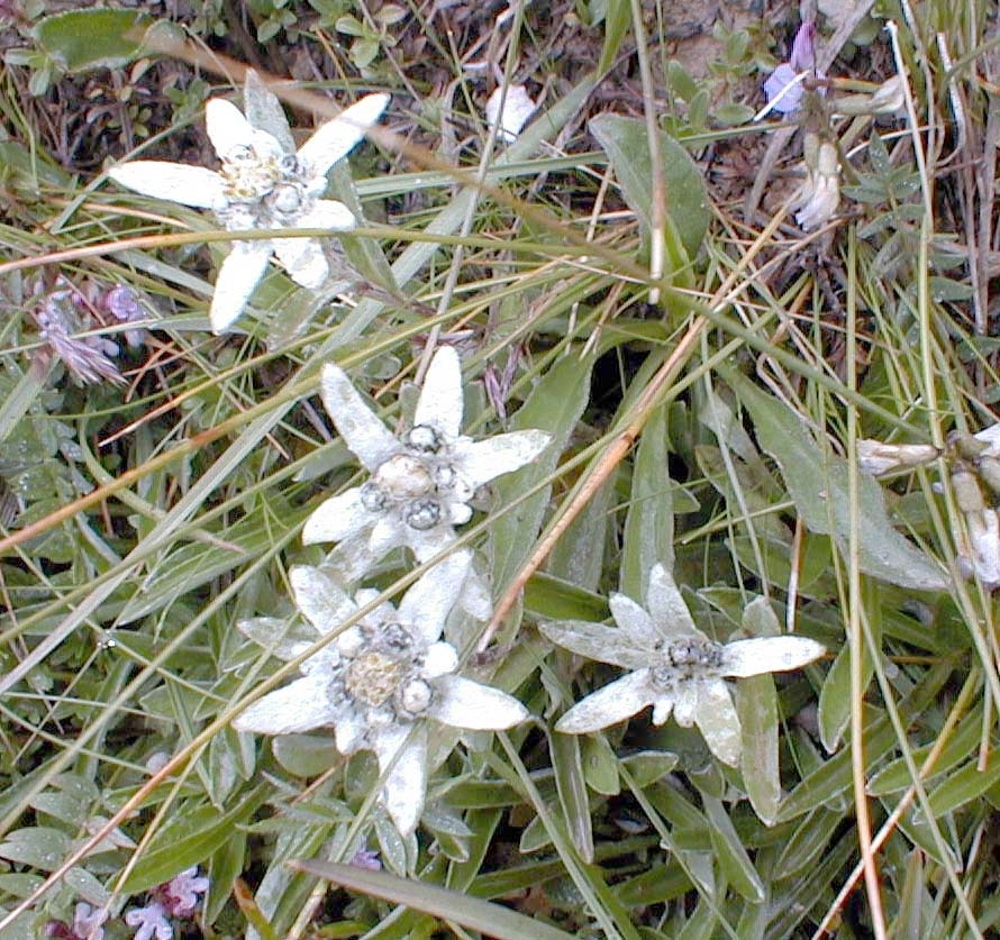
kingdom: Plantae
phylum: Tracheophyta
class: Magnoliopsida
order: Asterales
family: Asteraceae
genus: Leontopodium
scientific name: Leontopodium nivale
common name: Edelweiss
